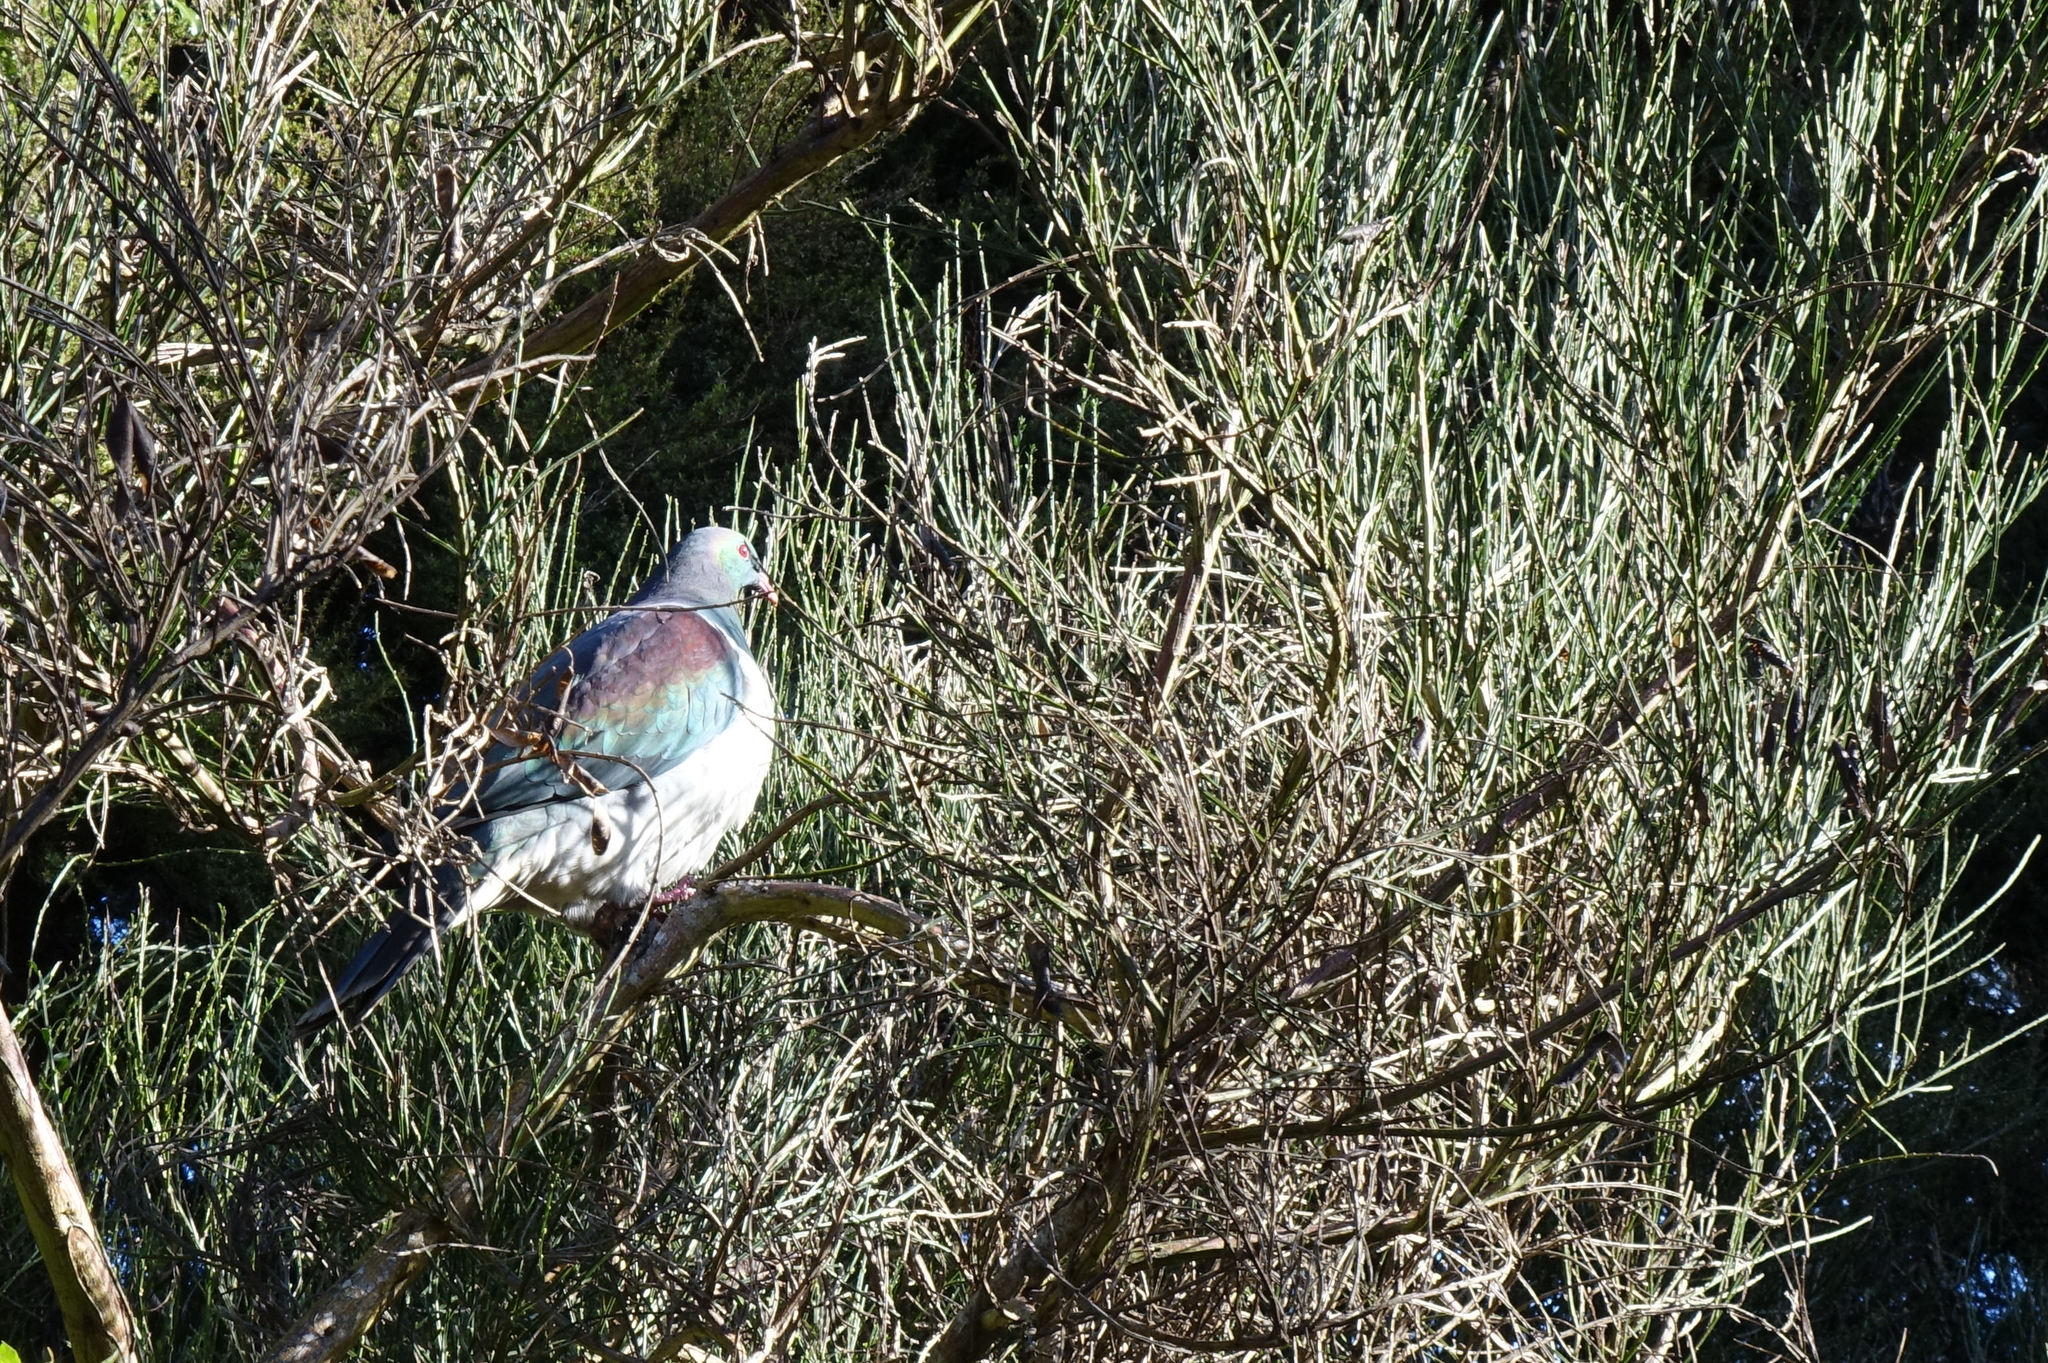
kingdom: Animalia
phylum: Chordata
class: Aves
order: Columbiformes
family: Columbidae
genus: Hemiphaga
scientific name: Hemiphaga novaeseelandiae
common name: New zealand pigeon
